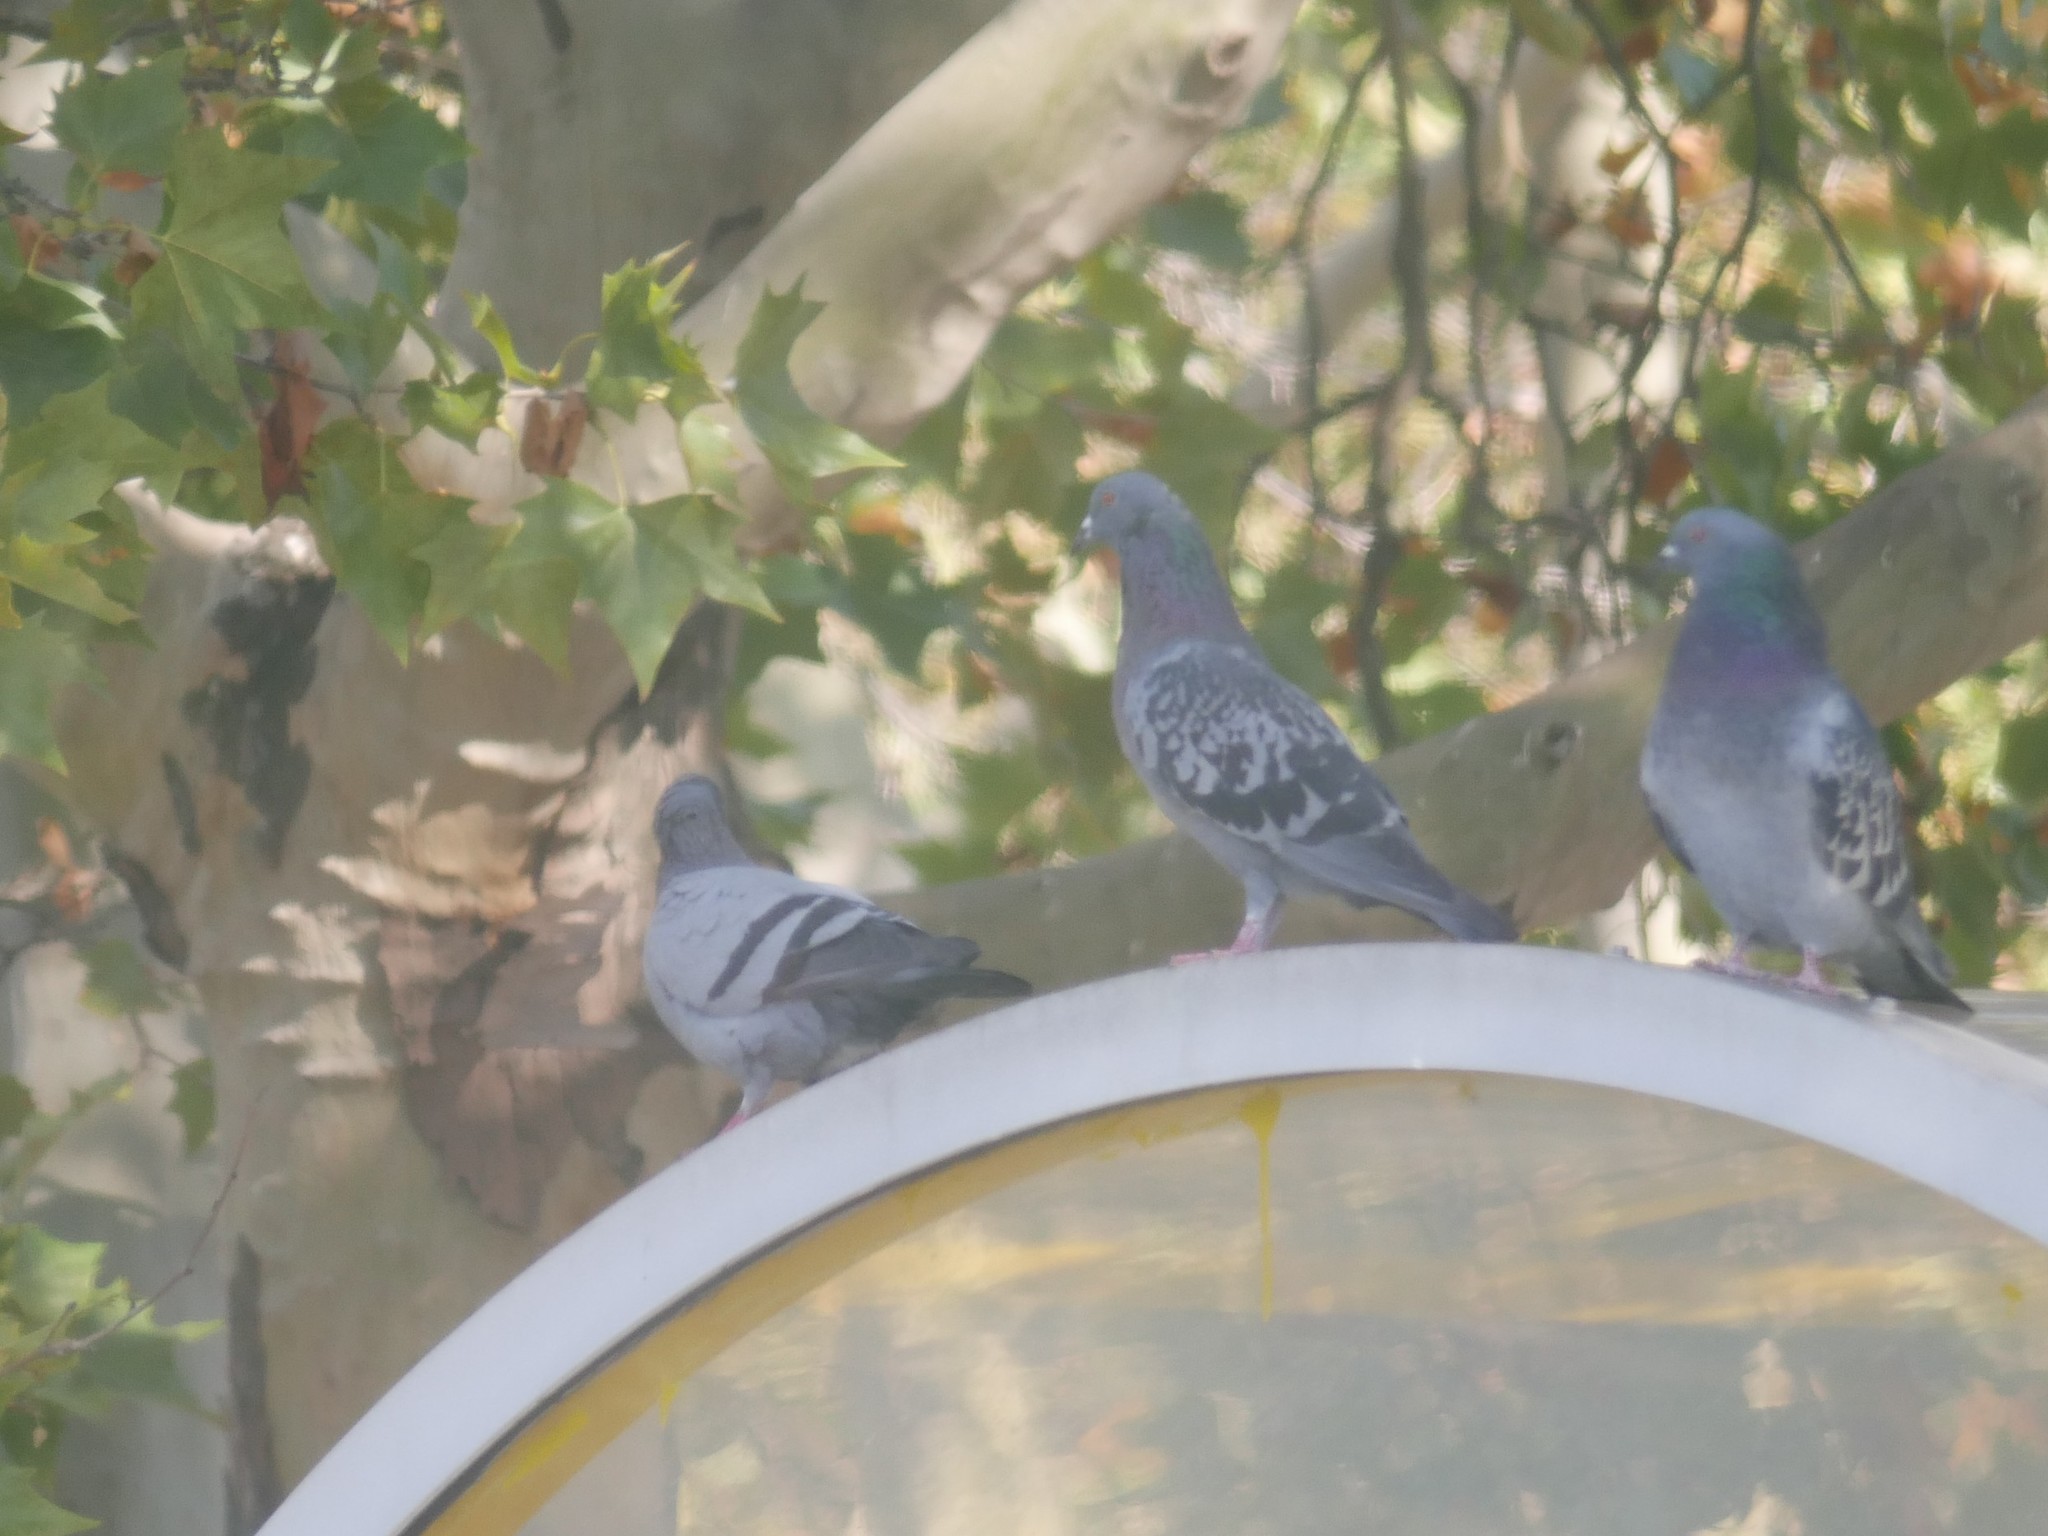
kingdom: Animalia
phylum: Chordata
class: Aves
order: Columbiformes
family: Columbidae
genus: Columba
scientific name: Columba livia
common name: Rock pigeon
